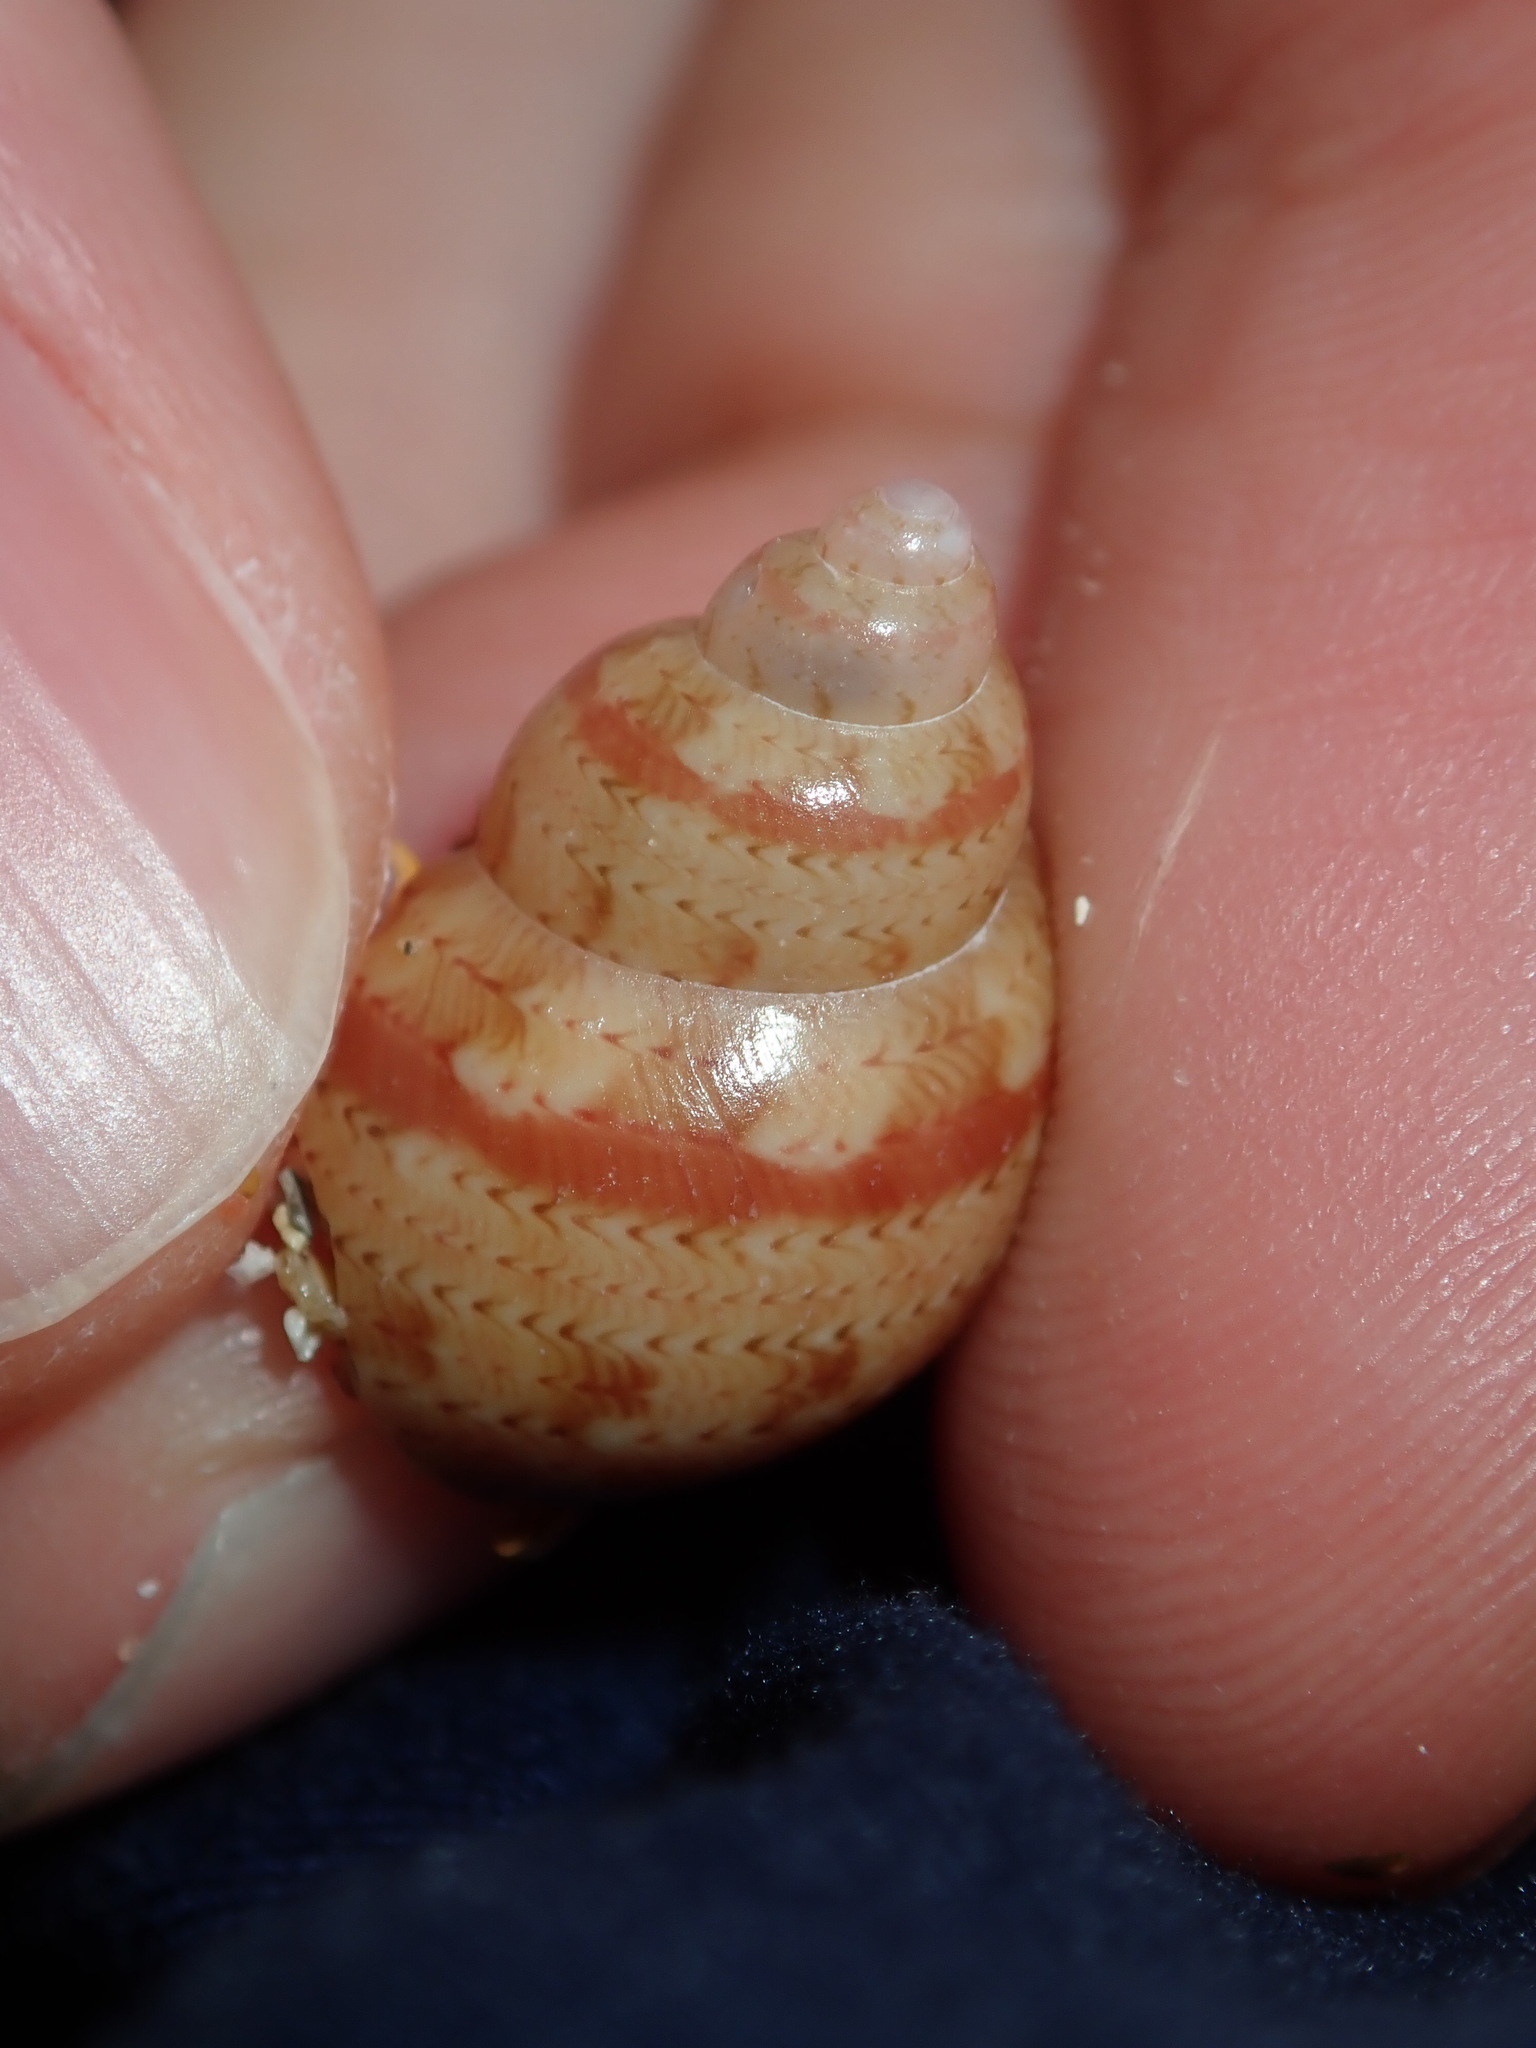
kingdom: Animalia
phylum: Mollusca
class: Gastropoda
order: Trochida
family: Phasianellidae
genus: Phasianella
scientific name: Phasianella ventricosa
